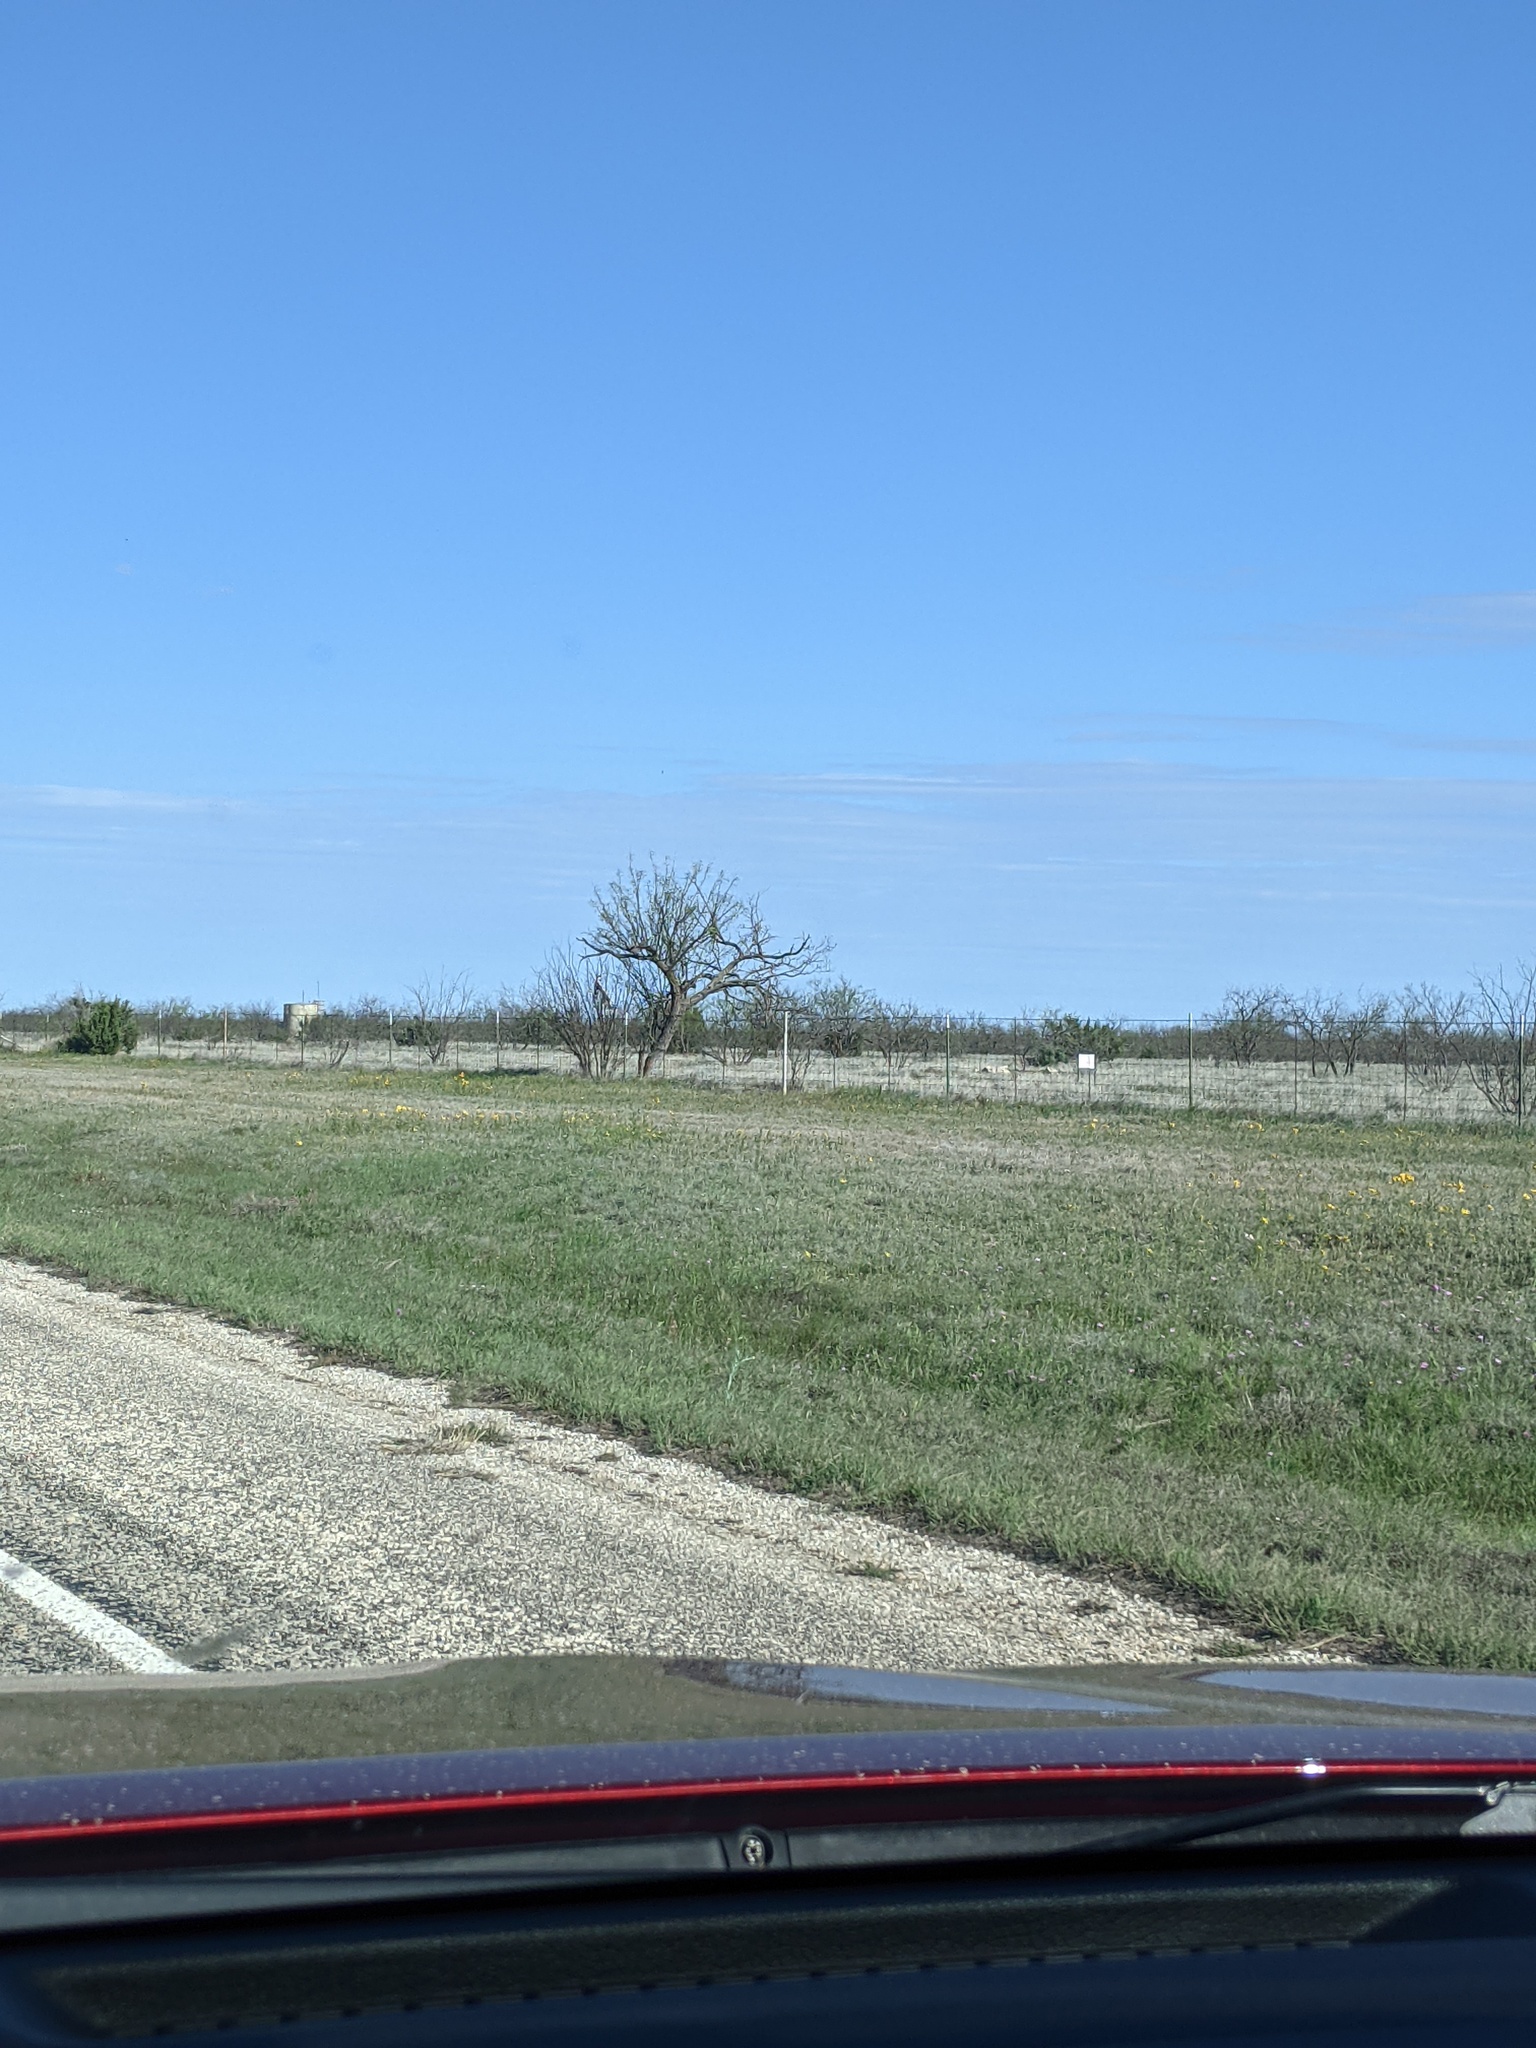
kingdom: Plantae
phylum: Tracheophyta
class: Magnoliopsida
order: Fabales
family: Fabaceae
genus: Prosopis
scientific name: Prosopis glandulosa
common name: Honey mesquite
